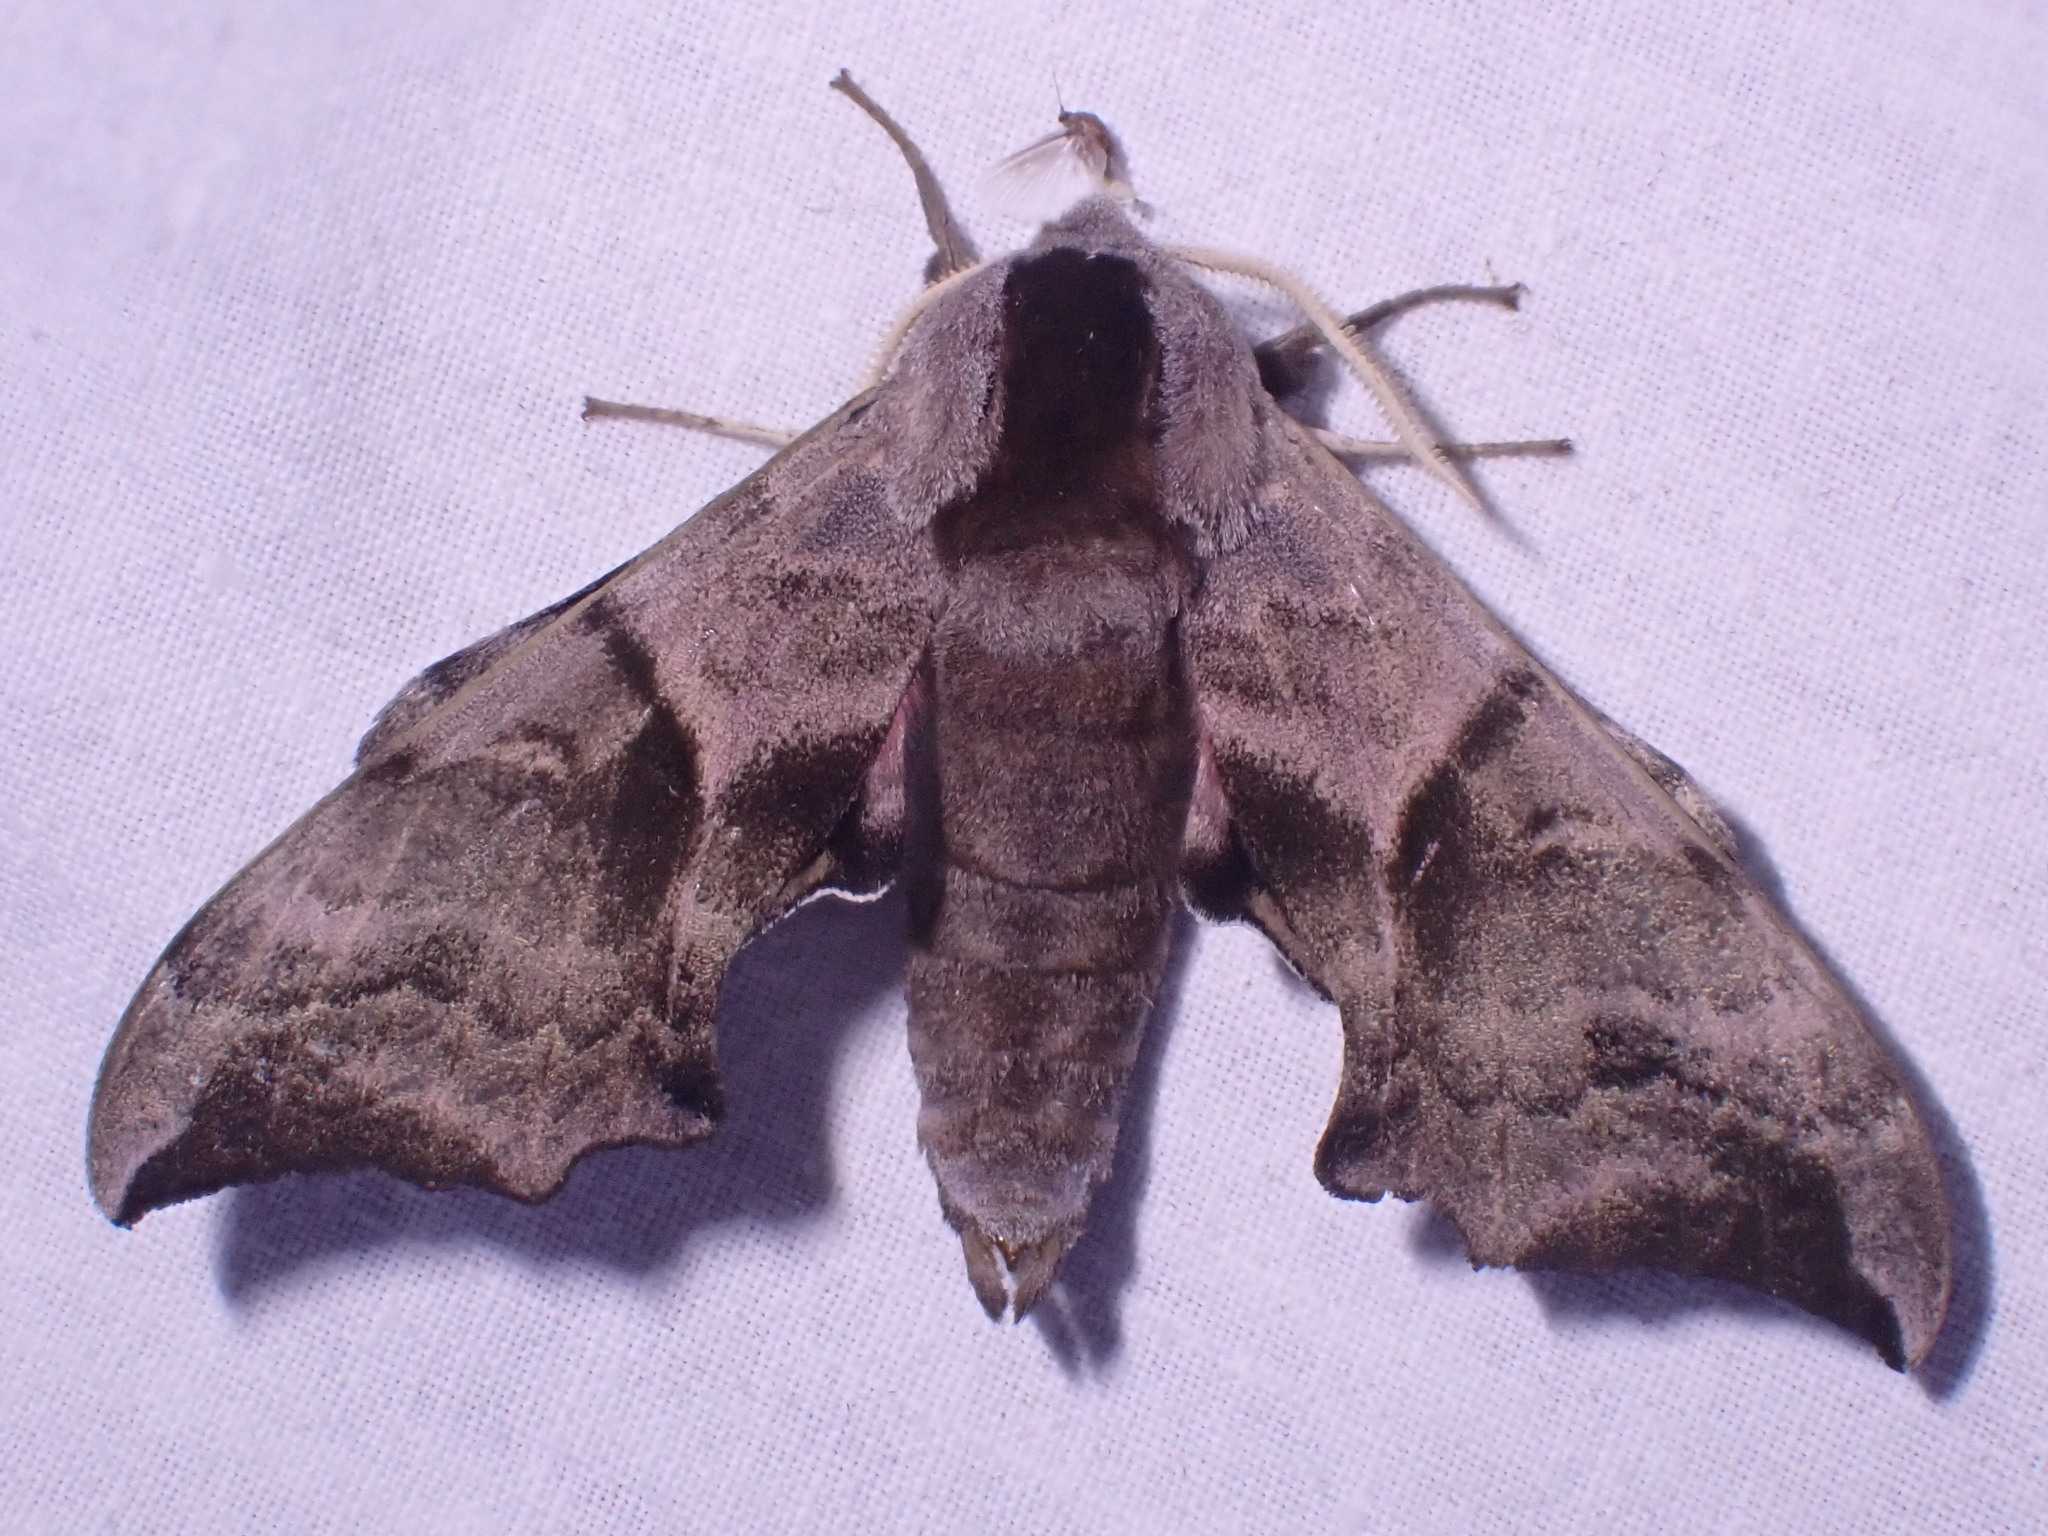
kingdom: Animalia
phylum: Arthropoda
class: Insecta
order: Lepidoptera
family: Sphingidae
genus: Smerinthus
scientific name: Smerinthus ocellata
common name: Eyed hawk-moth
